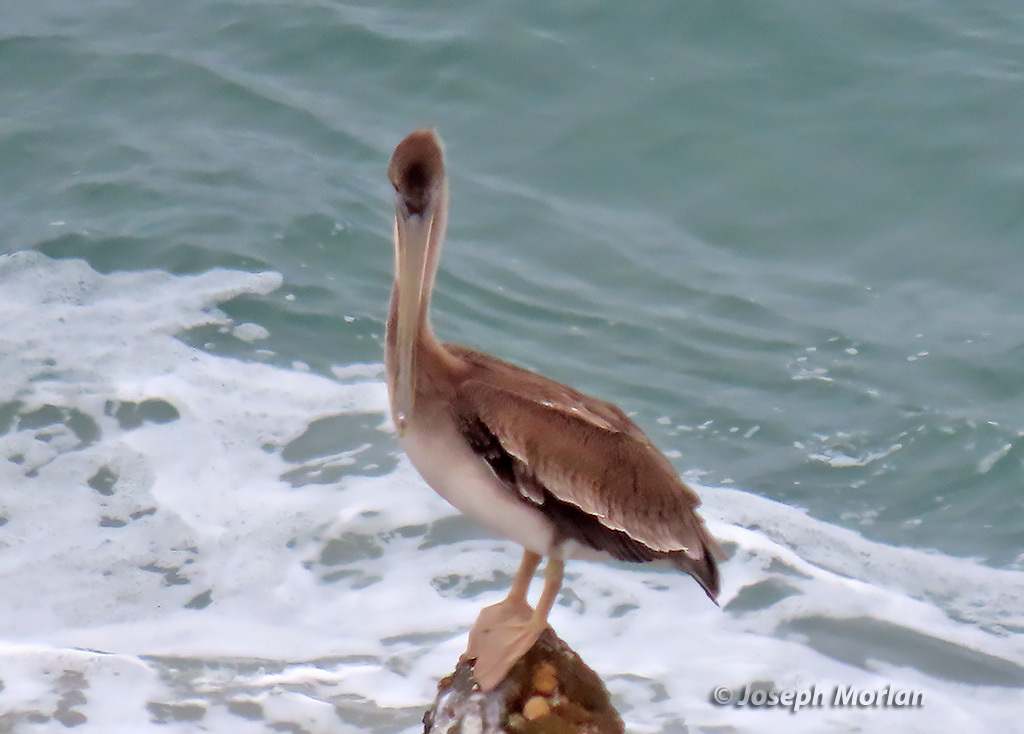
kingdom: Animalia
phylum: Chordata
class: Aves
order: Pelecaniformes
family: Pelecanidae
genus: Pelecanus
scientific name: Pelecanus occidentalis
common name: Brown pelican
